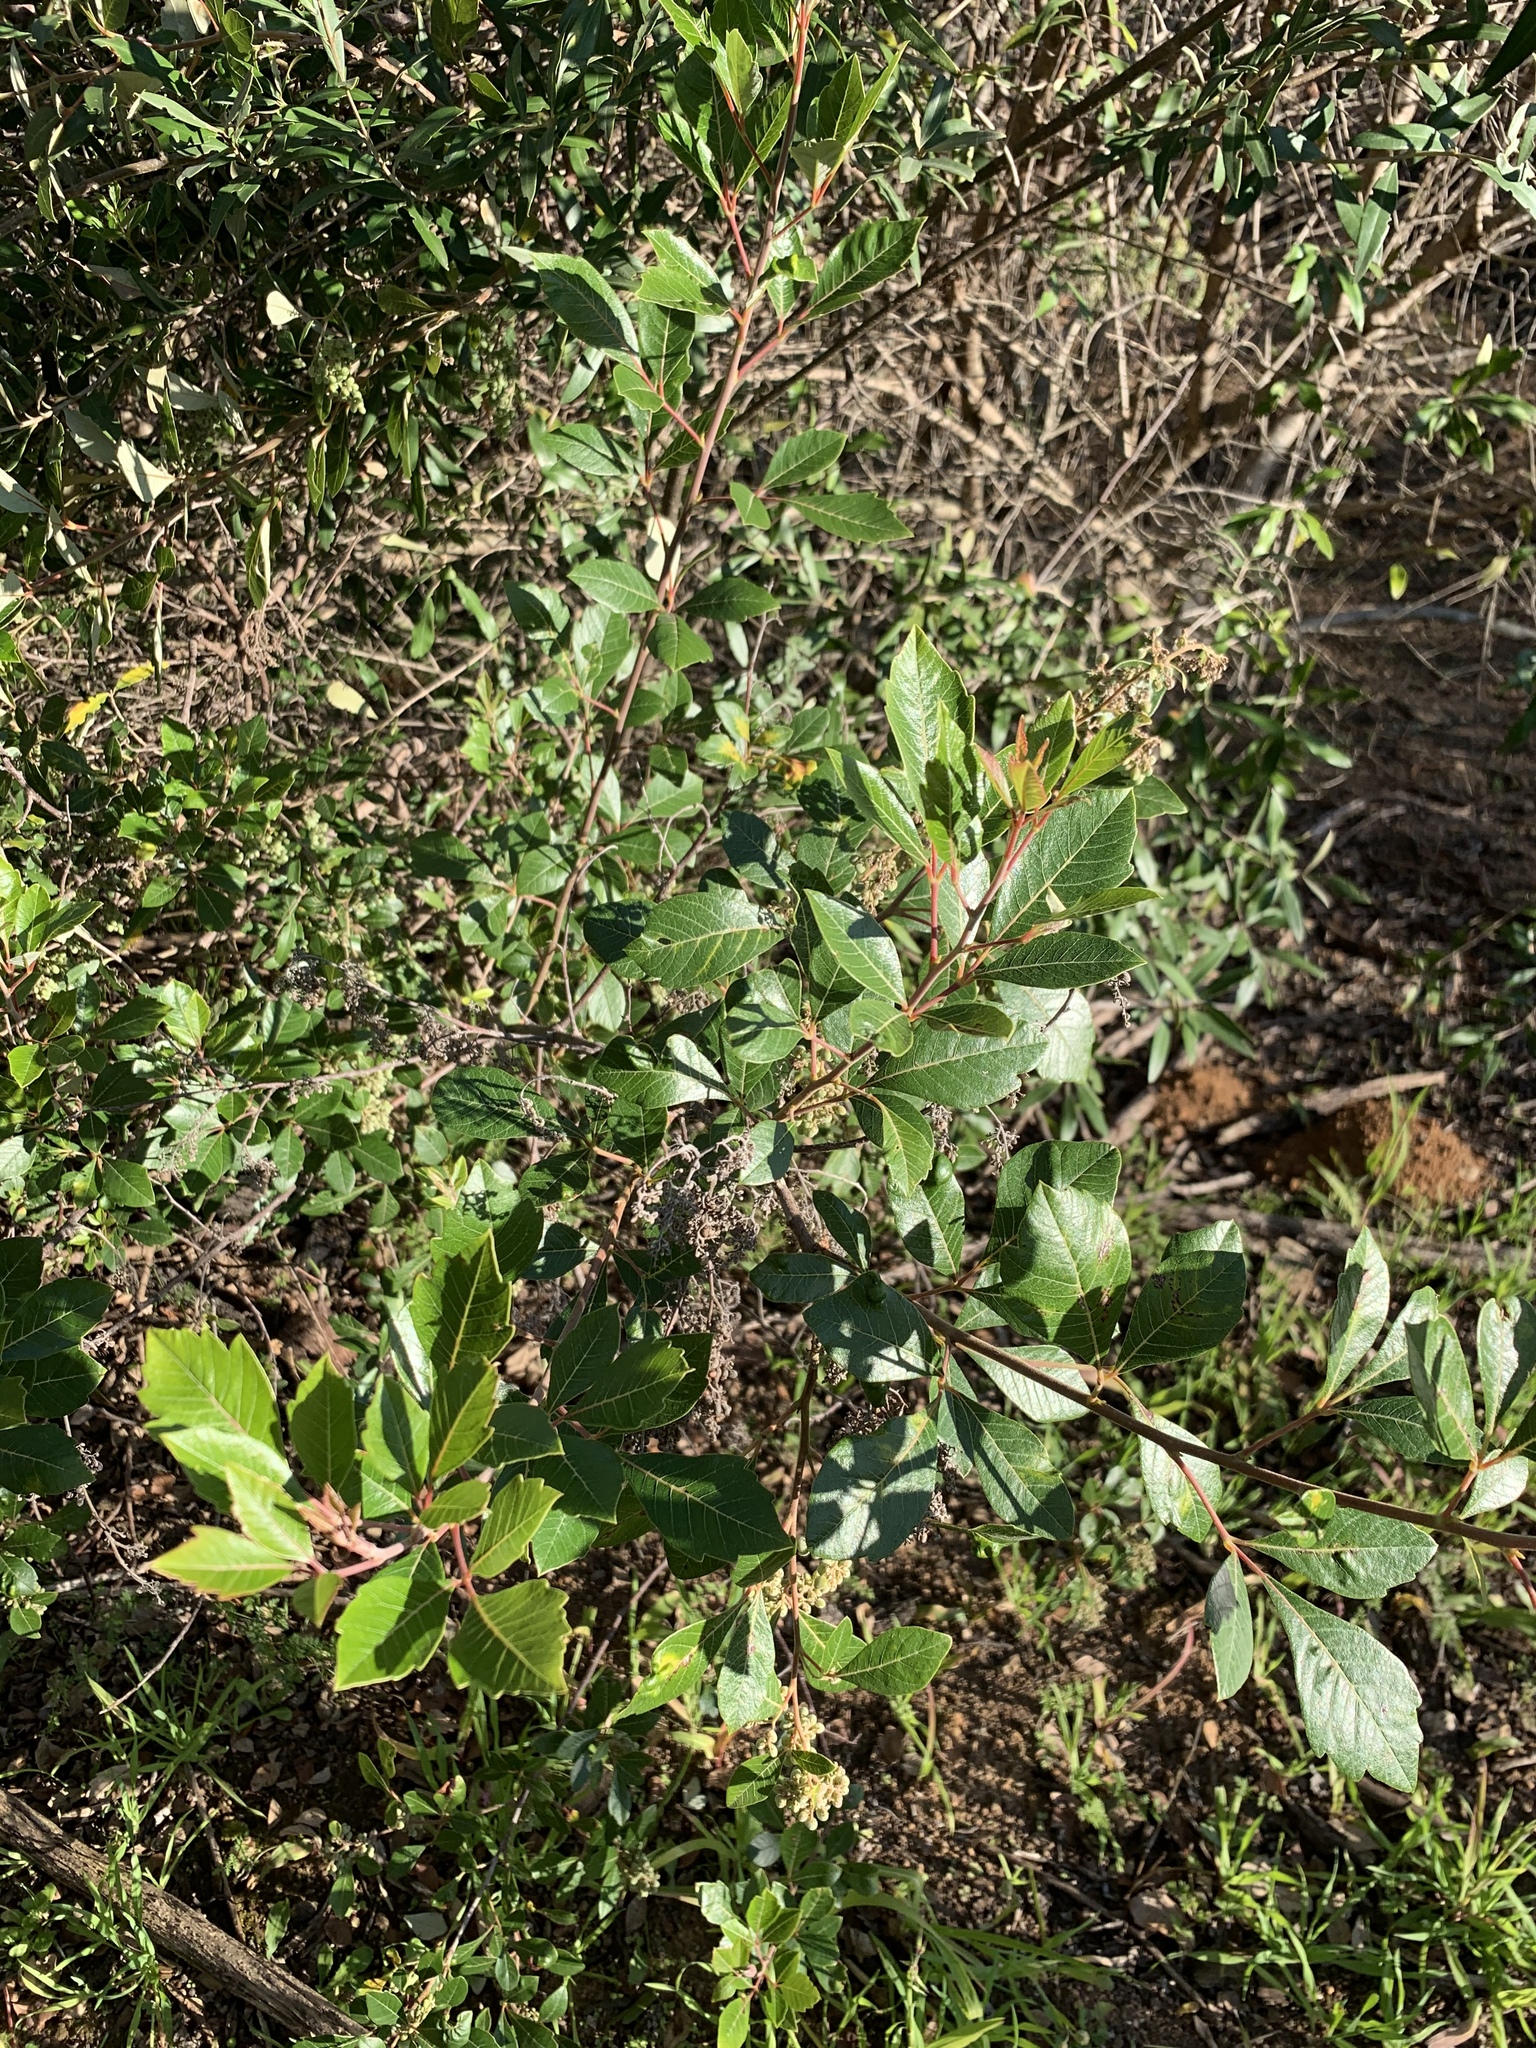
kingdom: Plantae
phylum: Tracheophyta
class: Magnoliopsida
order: Sapindales
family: Anacardiaceae
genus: Searsia
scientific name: Searsia tomentosa
